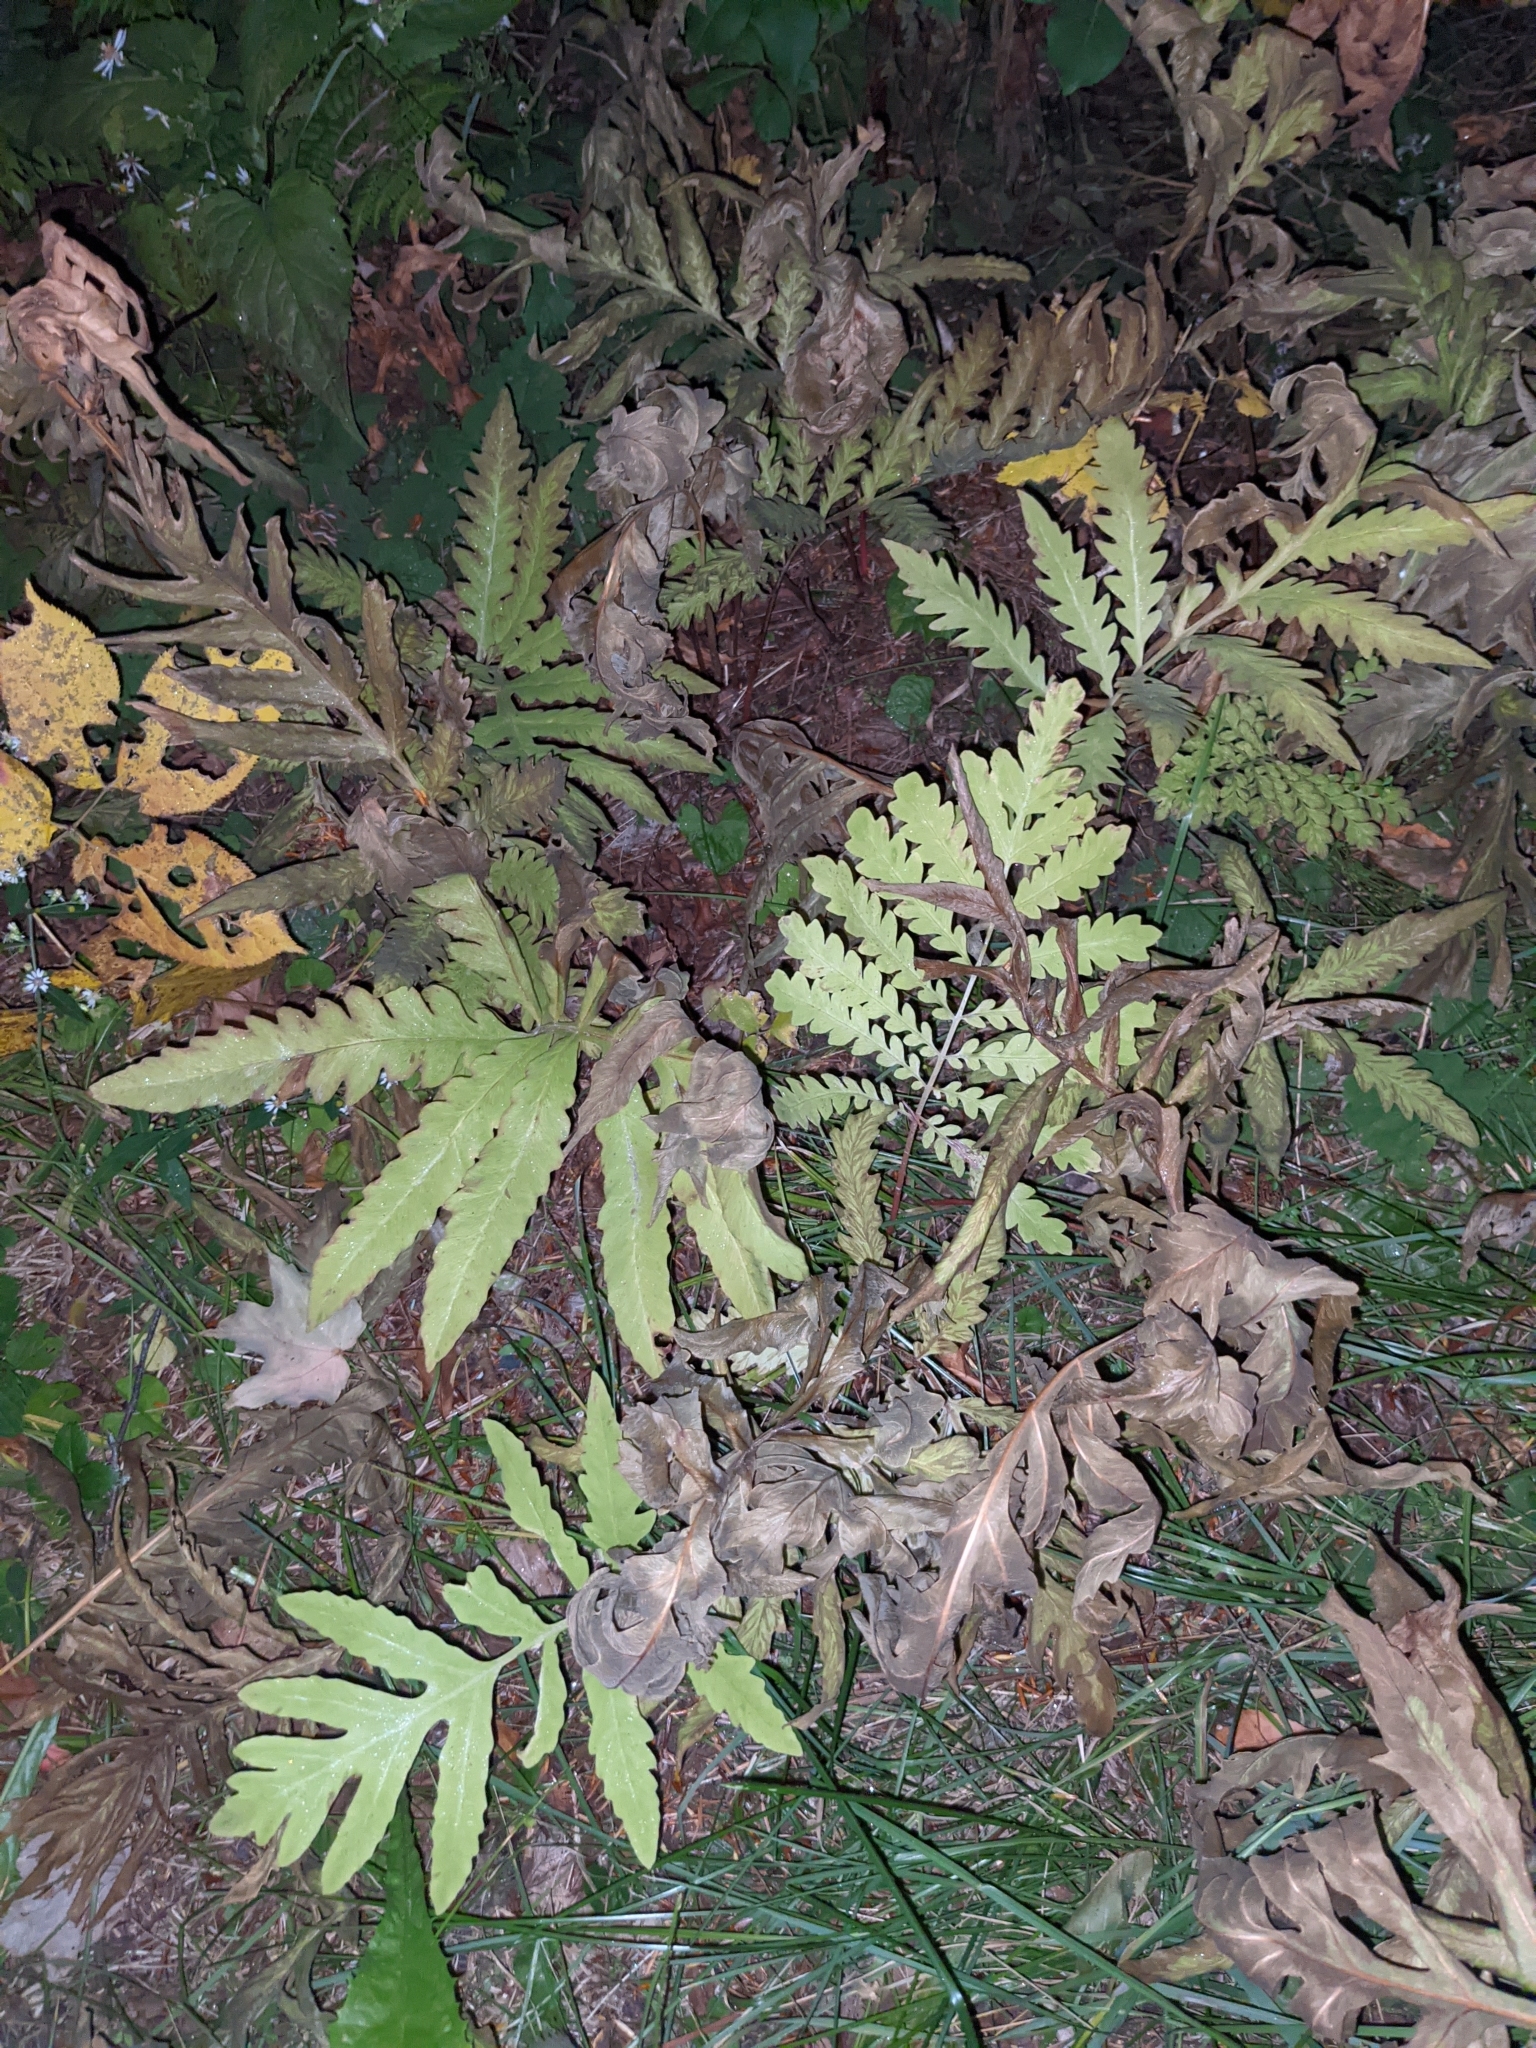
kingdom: Plantae
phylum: Tracheophyta
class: Polypodiopsida
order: Polypodiales
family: Onocleaceae
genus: Onoclea
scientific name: Onoclea sensibilis
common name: Sensitive fern
